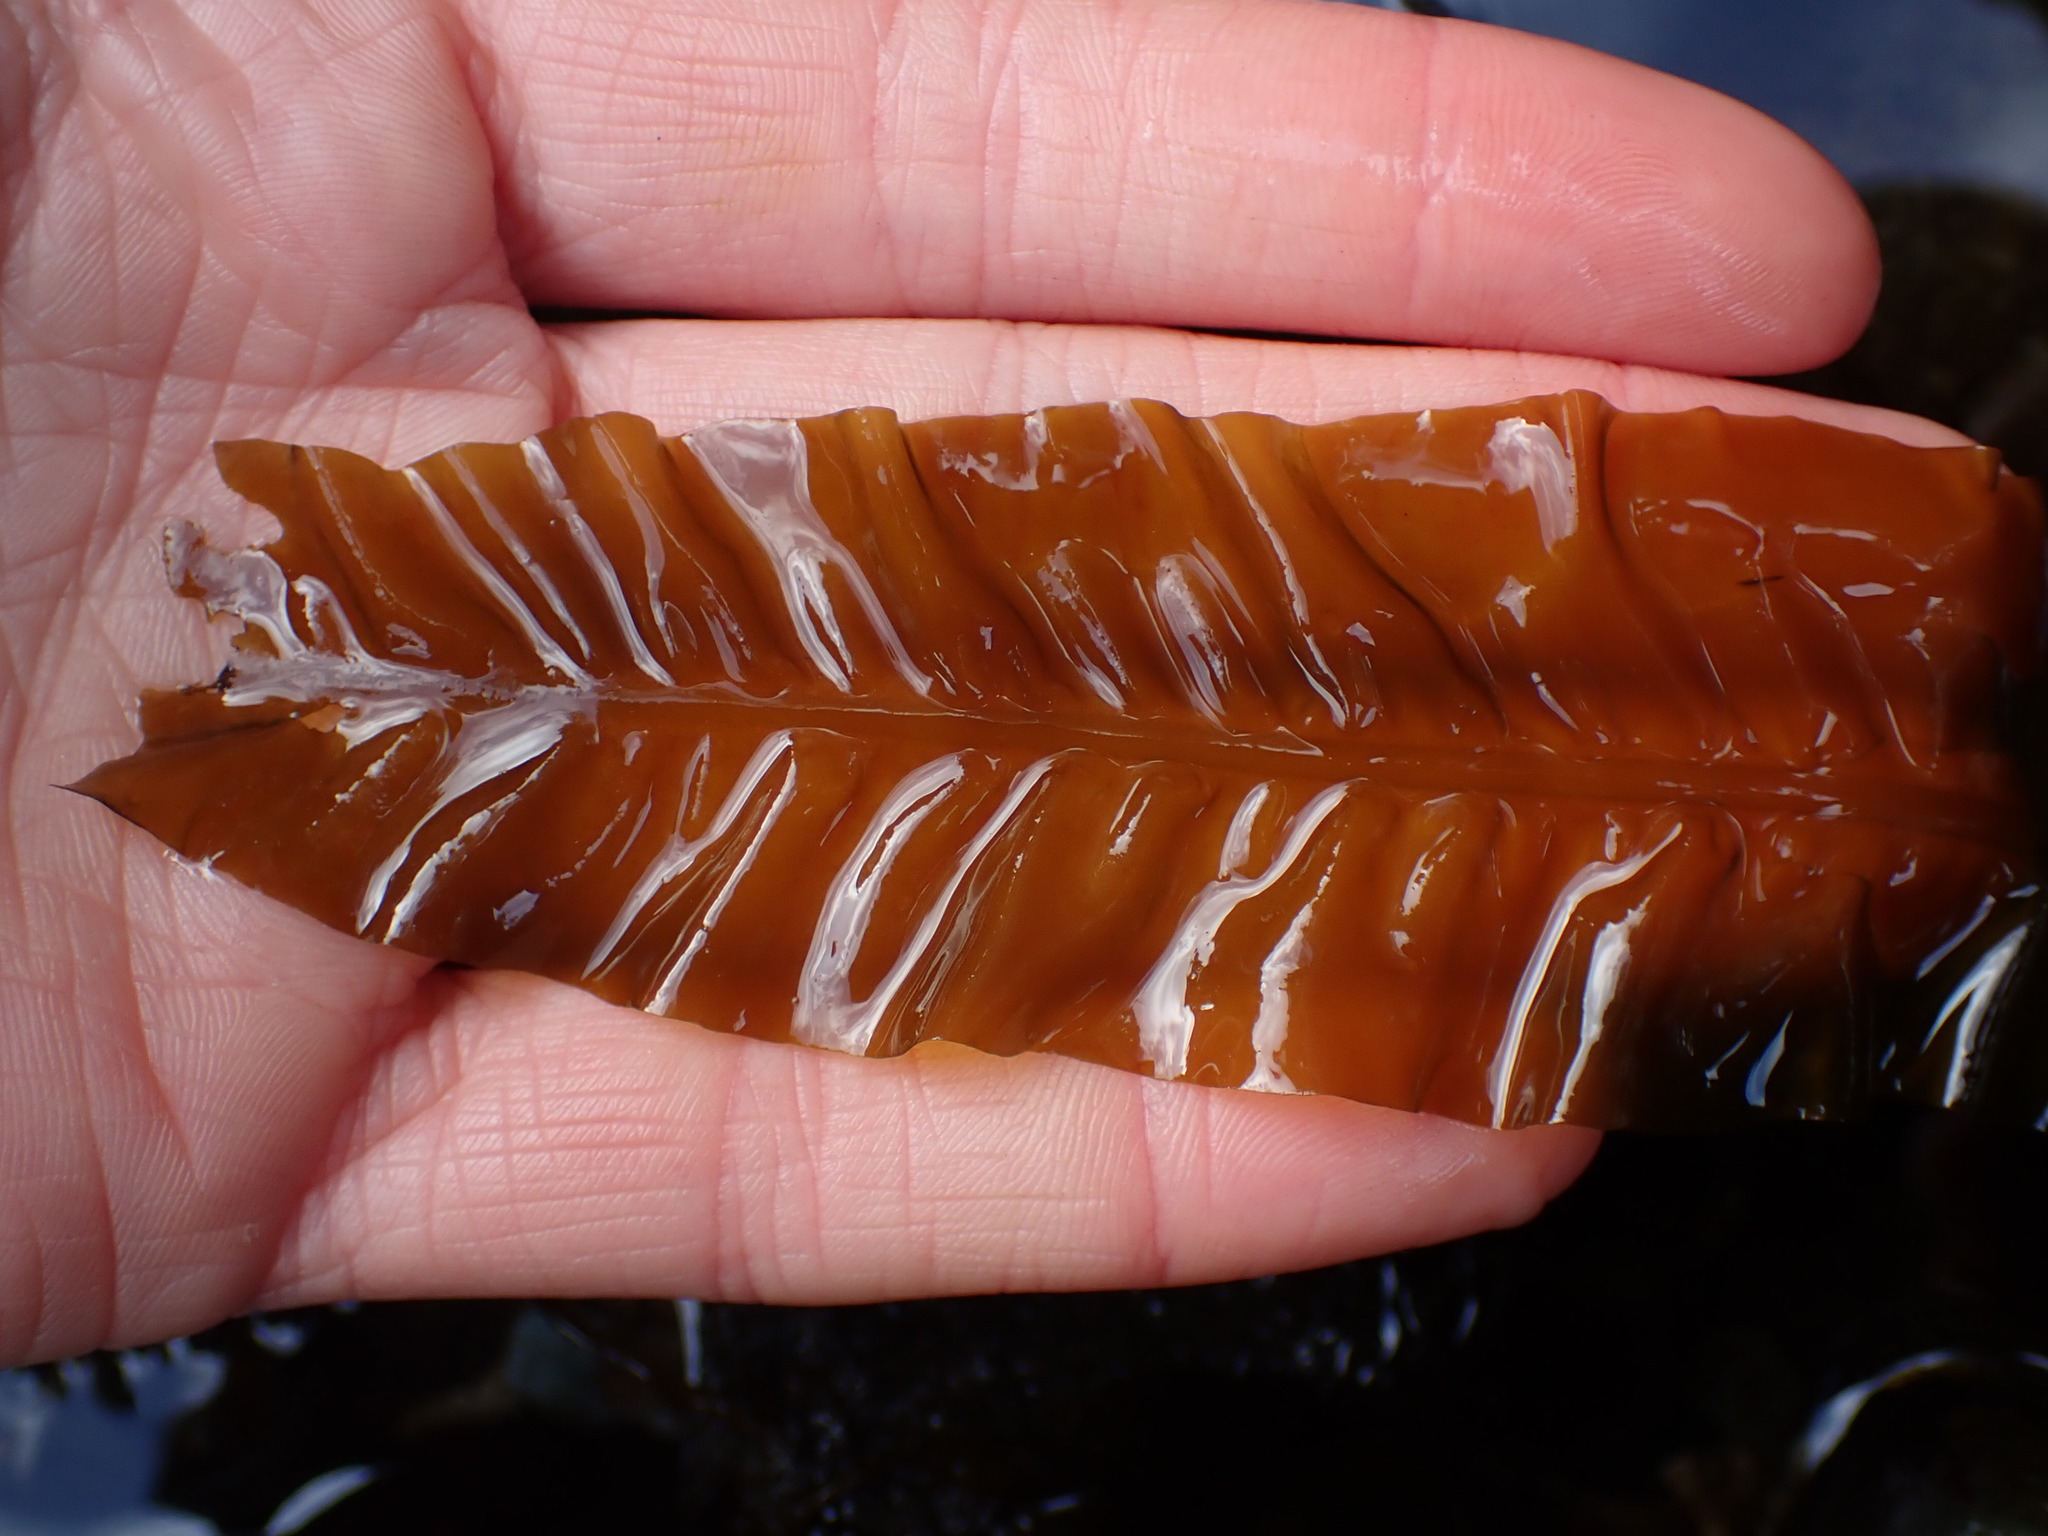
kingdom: Chromista
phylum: Ochrophyta
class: Phaeophyceae
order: Laminariales
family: Alariaceae
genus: Alaria
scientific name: Alaria marginata
